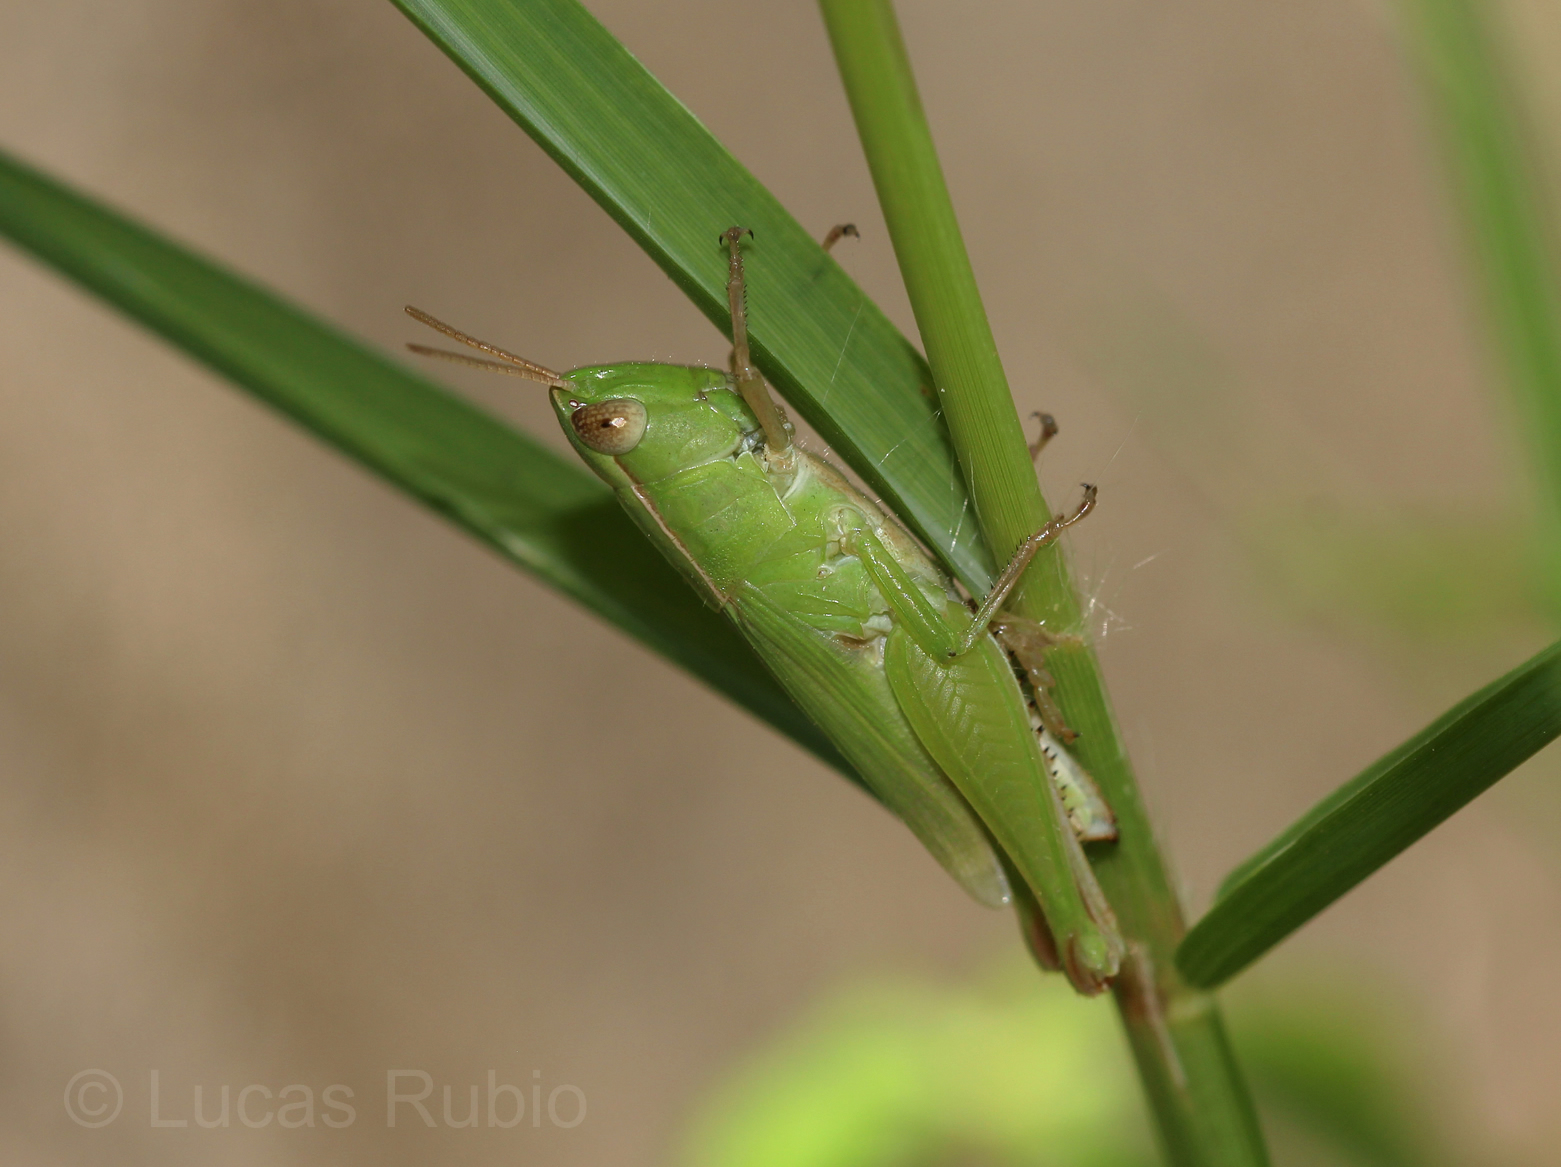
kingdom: Animalia
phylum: Arthropoda
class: Insecta
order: Orthoptera
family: Acrididae
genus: Dichromorpha
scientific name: Dichromorpha australis
